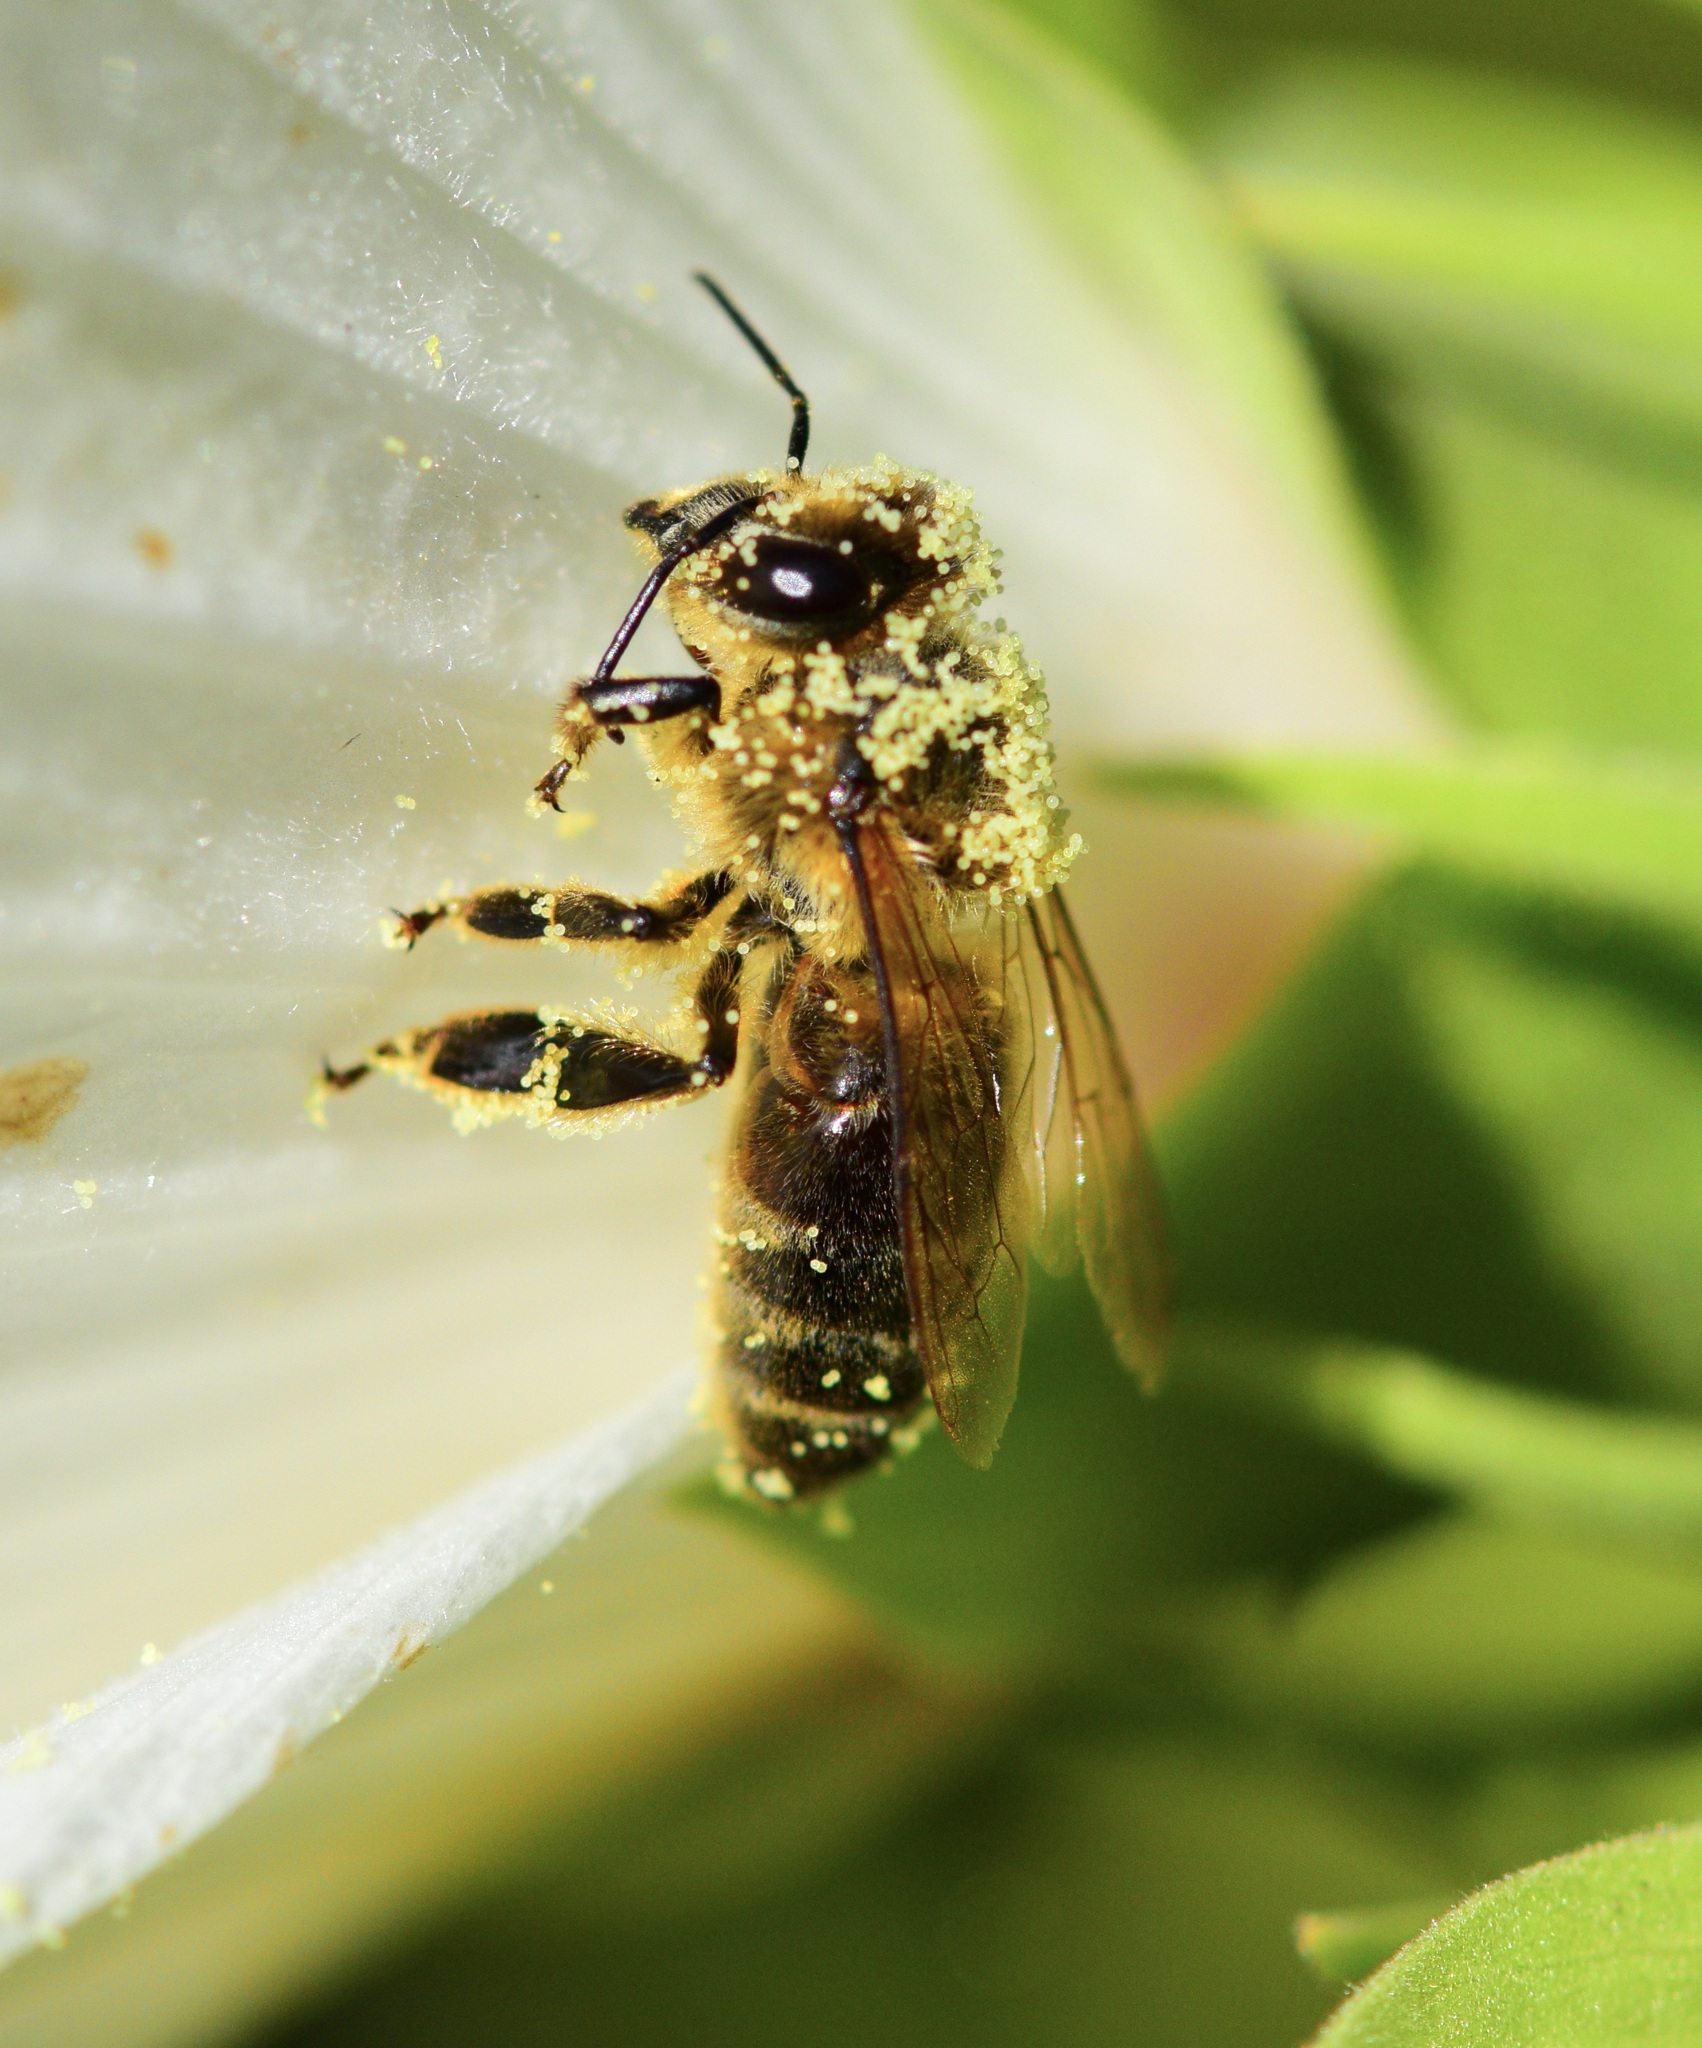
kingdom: Animalia
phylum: Arthropoda
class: Insecta
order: Hymenoptera
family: Apidae
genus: Apis
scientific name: Apis mellifera
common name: Honey bee
